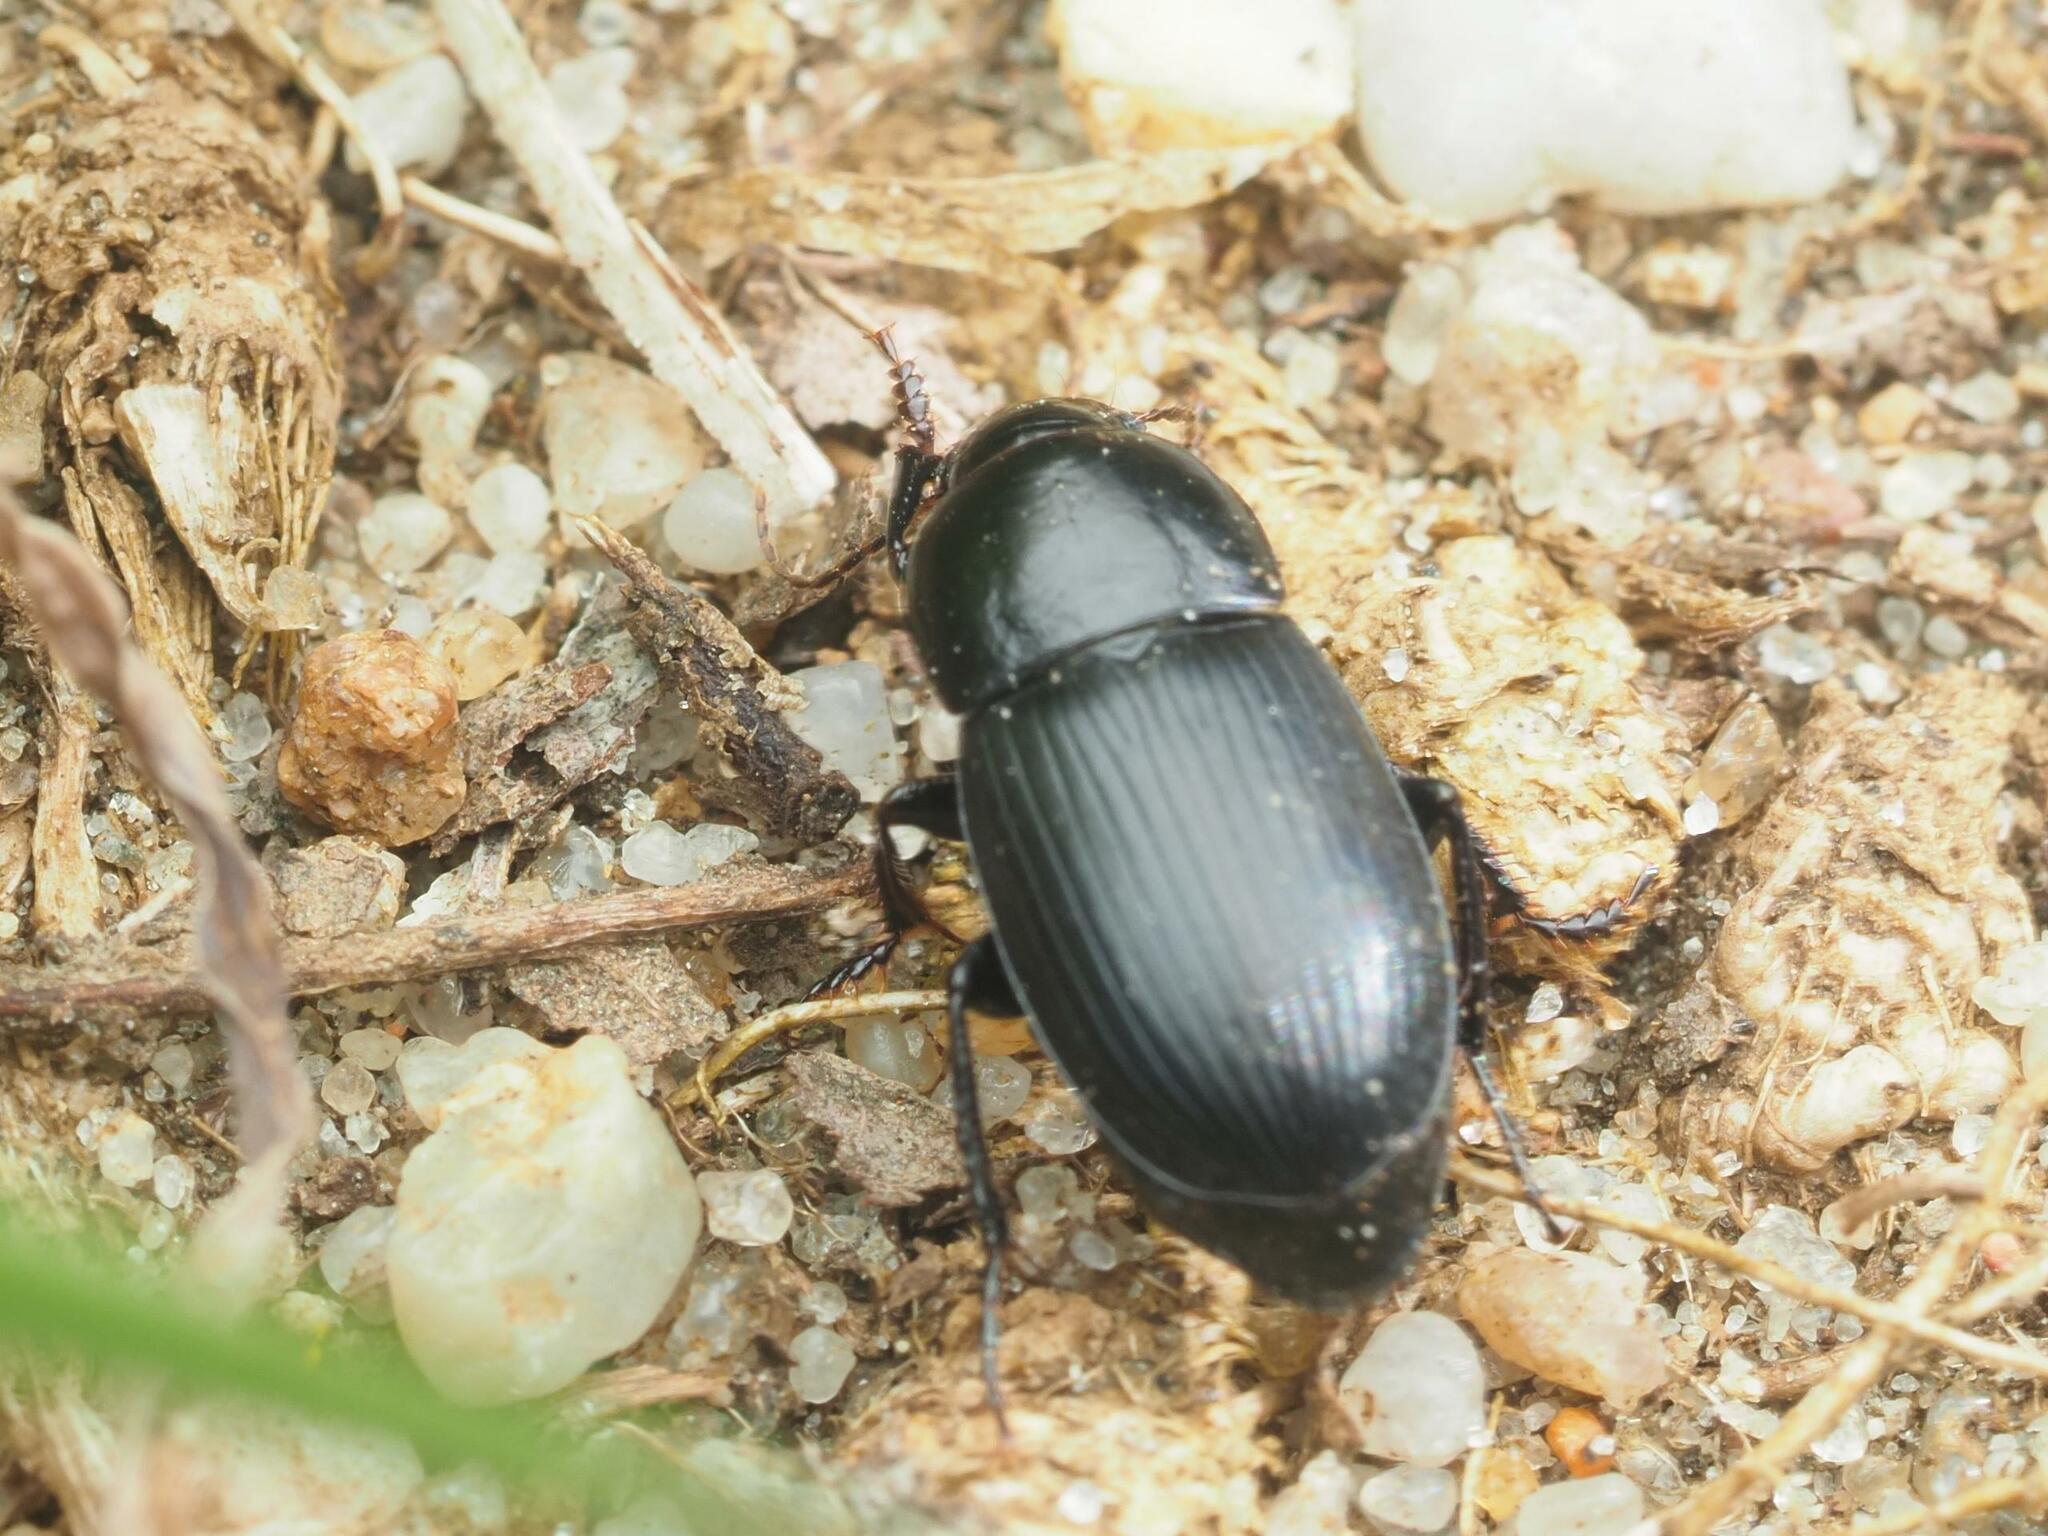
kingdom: Animalia
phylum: Arthropoda
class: Insecta
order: Coleoptera
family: Carabidae
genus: Zabrus
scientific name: Zabrus tenebrioides
